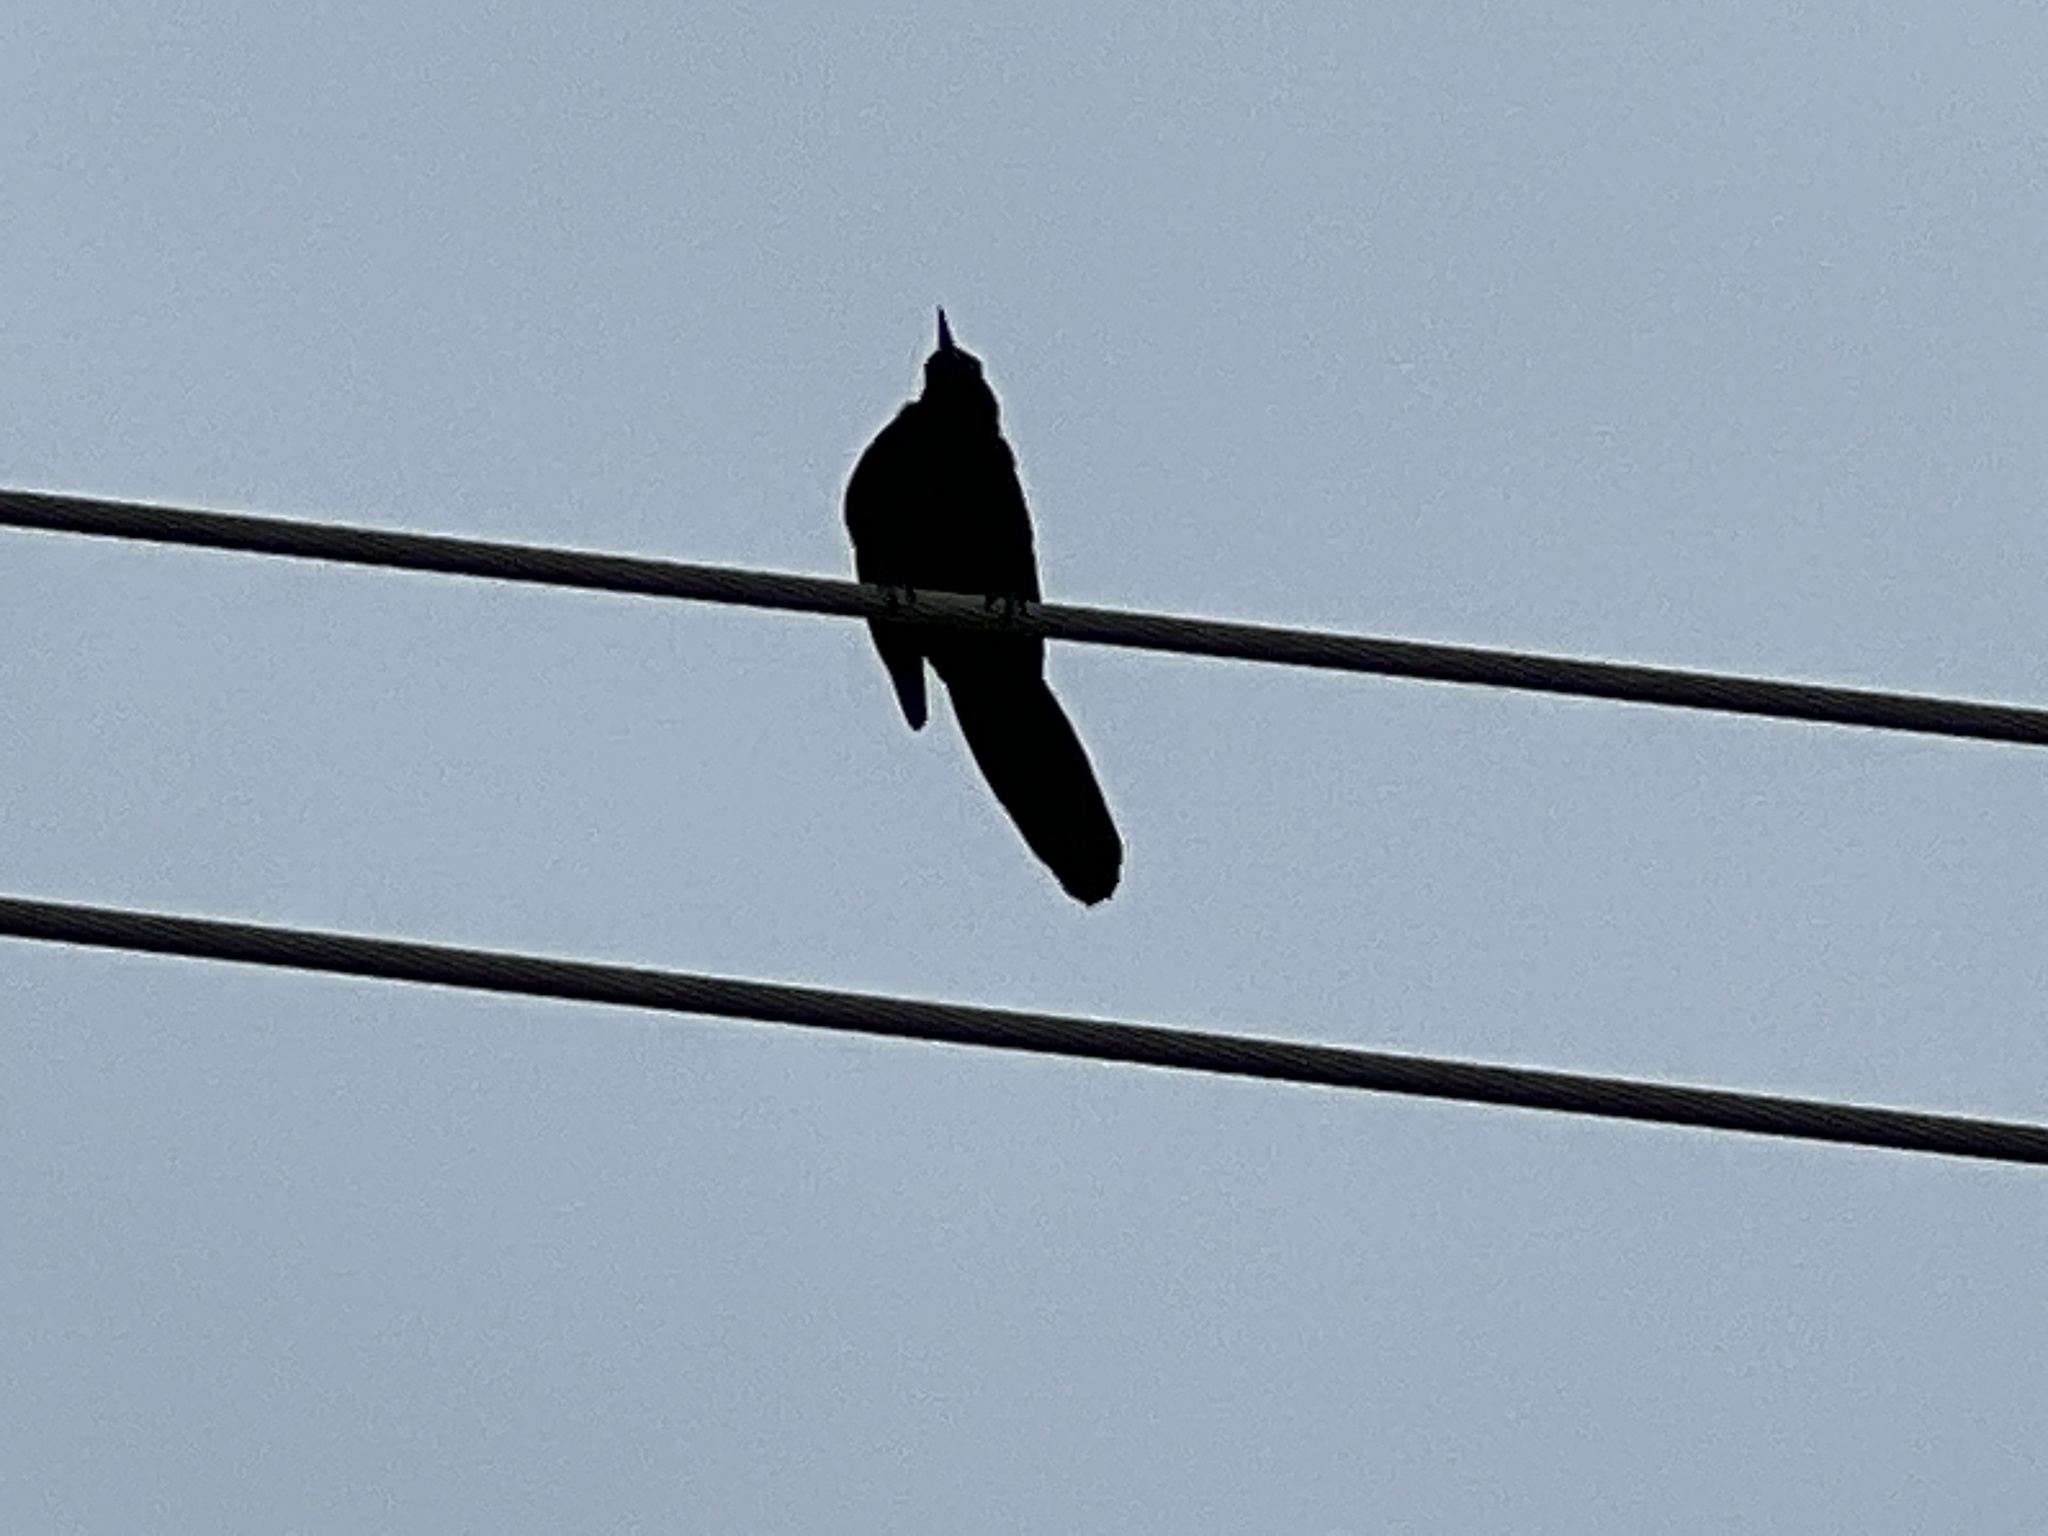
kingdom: Animalia
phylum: Chordata
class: Aves
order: Passeriformes
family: Icteridae
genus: Quiscalus
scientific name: Quiscalus mexicanus
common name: Great-tailed grackle
